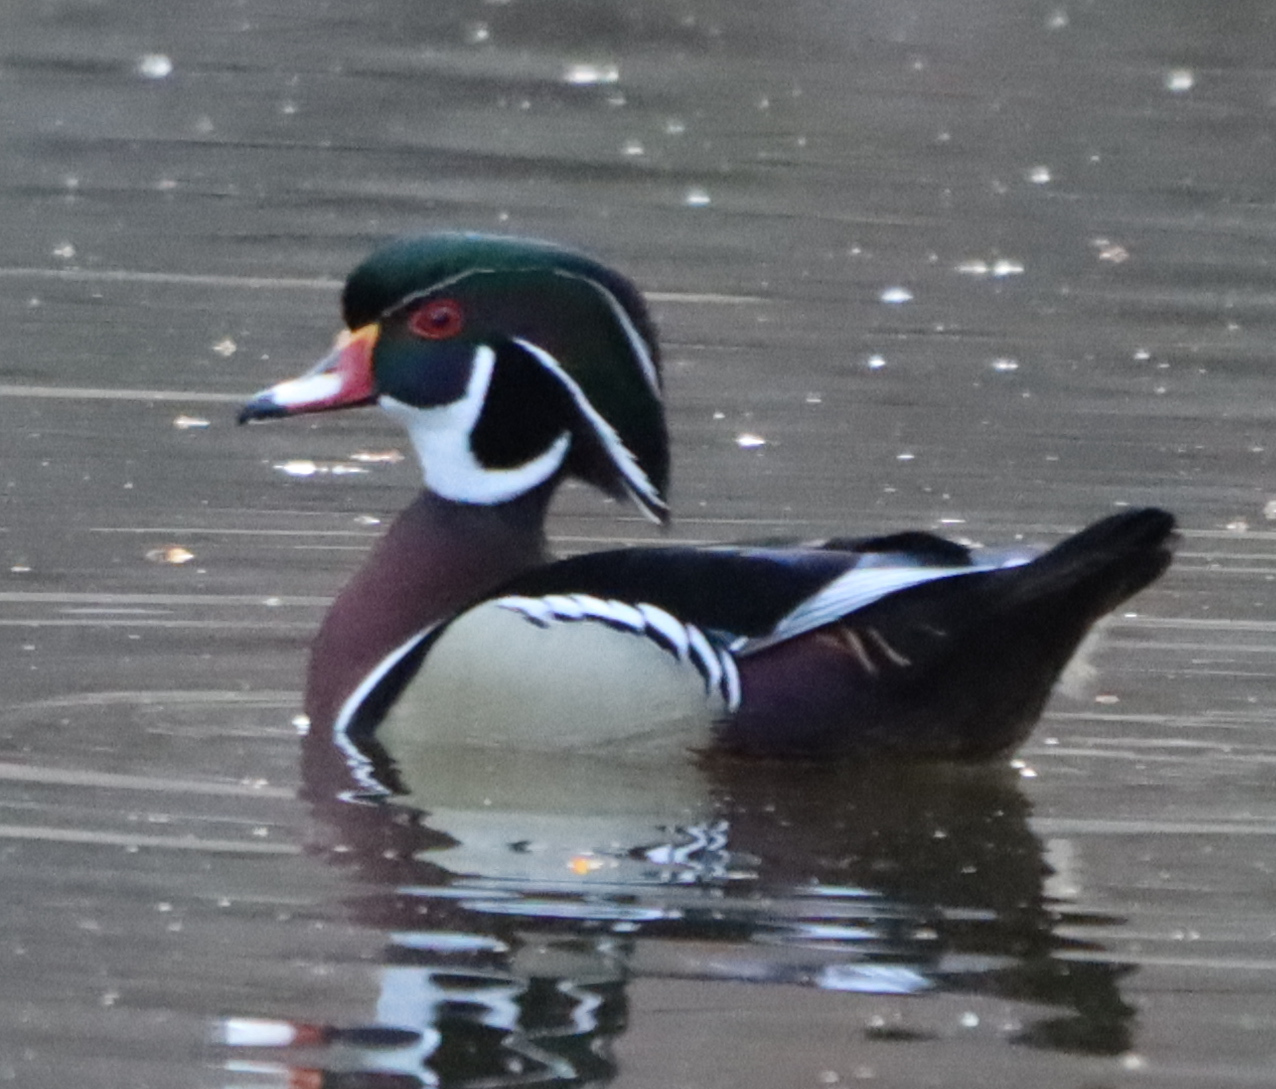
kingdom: Animalia
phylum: Chordata
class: Aves
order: Anseriformes
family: Anatidae
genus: Aix
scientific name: Aix sponsa
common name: Wood duck
